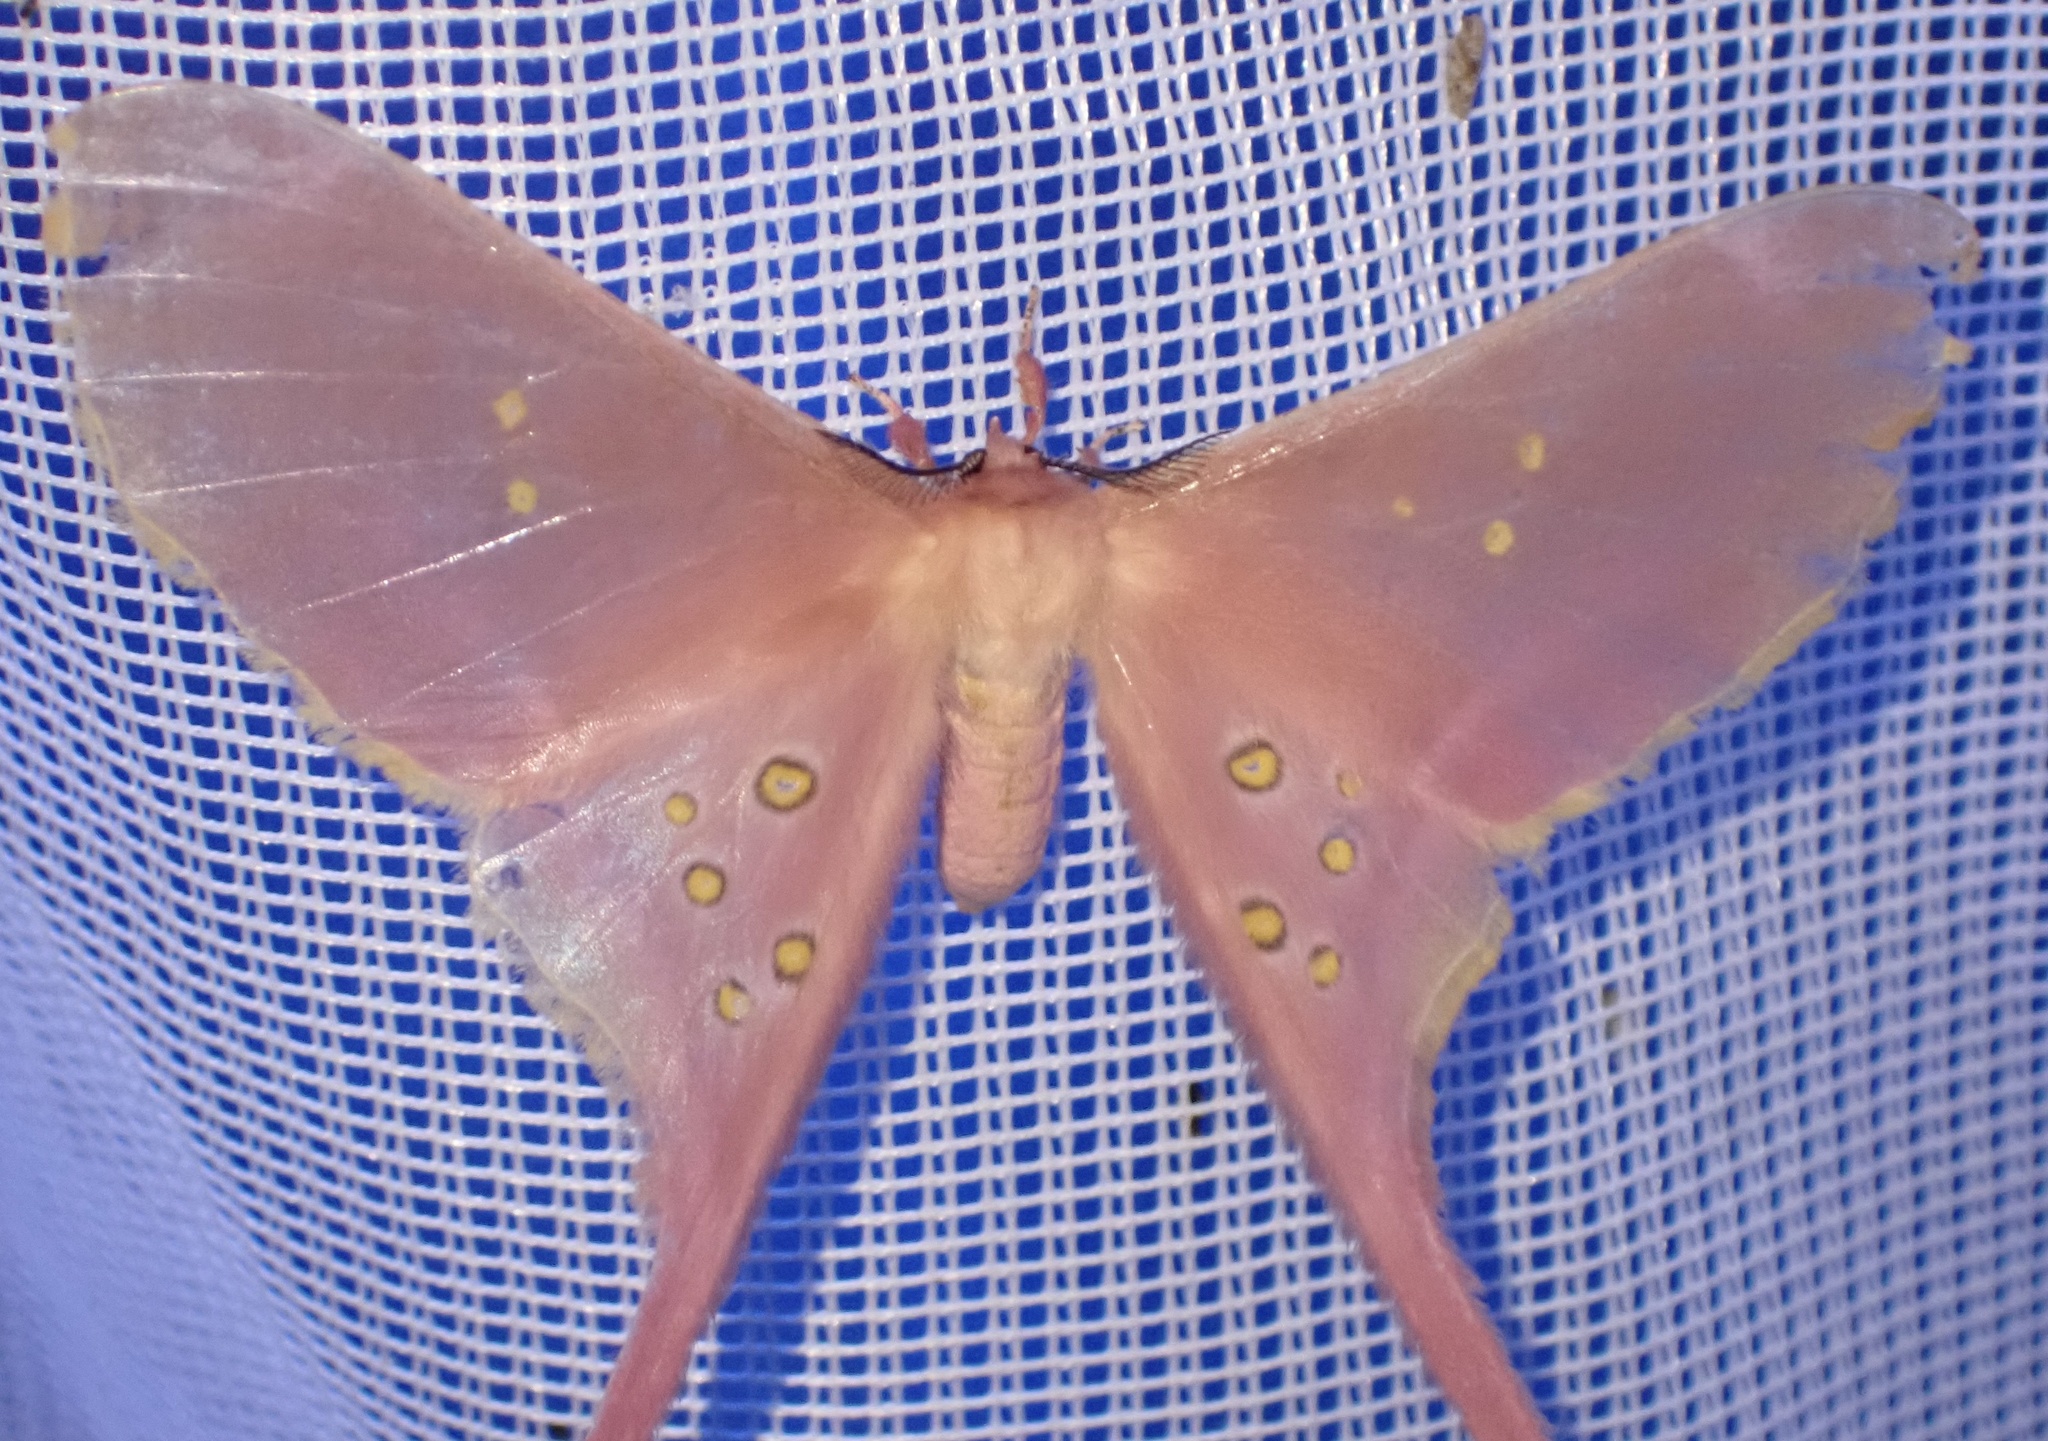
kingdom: Animalia
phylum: Arthropoda
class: Insecta
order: Lepidoptera
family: Saturniidae
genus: Eudaemonia
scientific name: Eudaemonia argus
